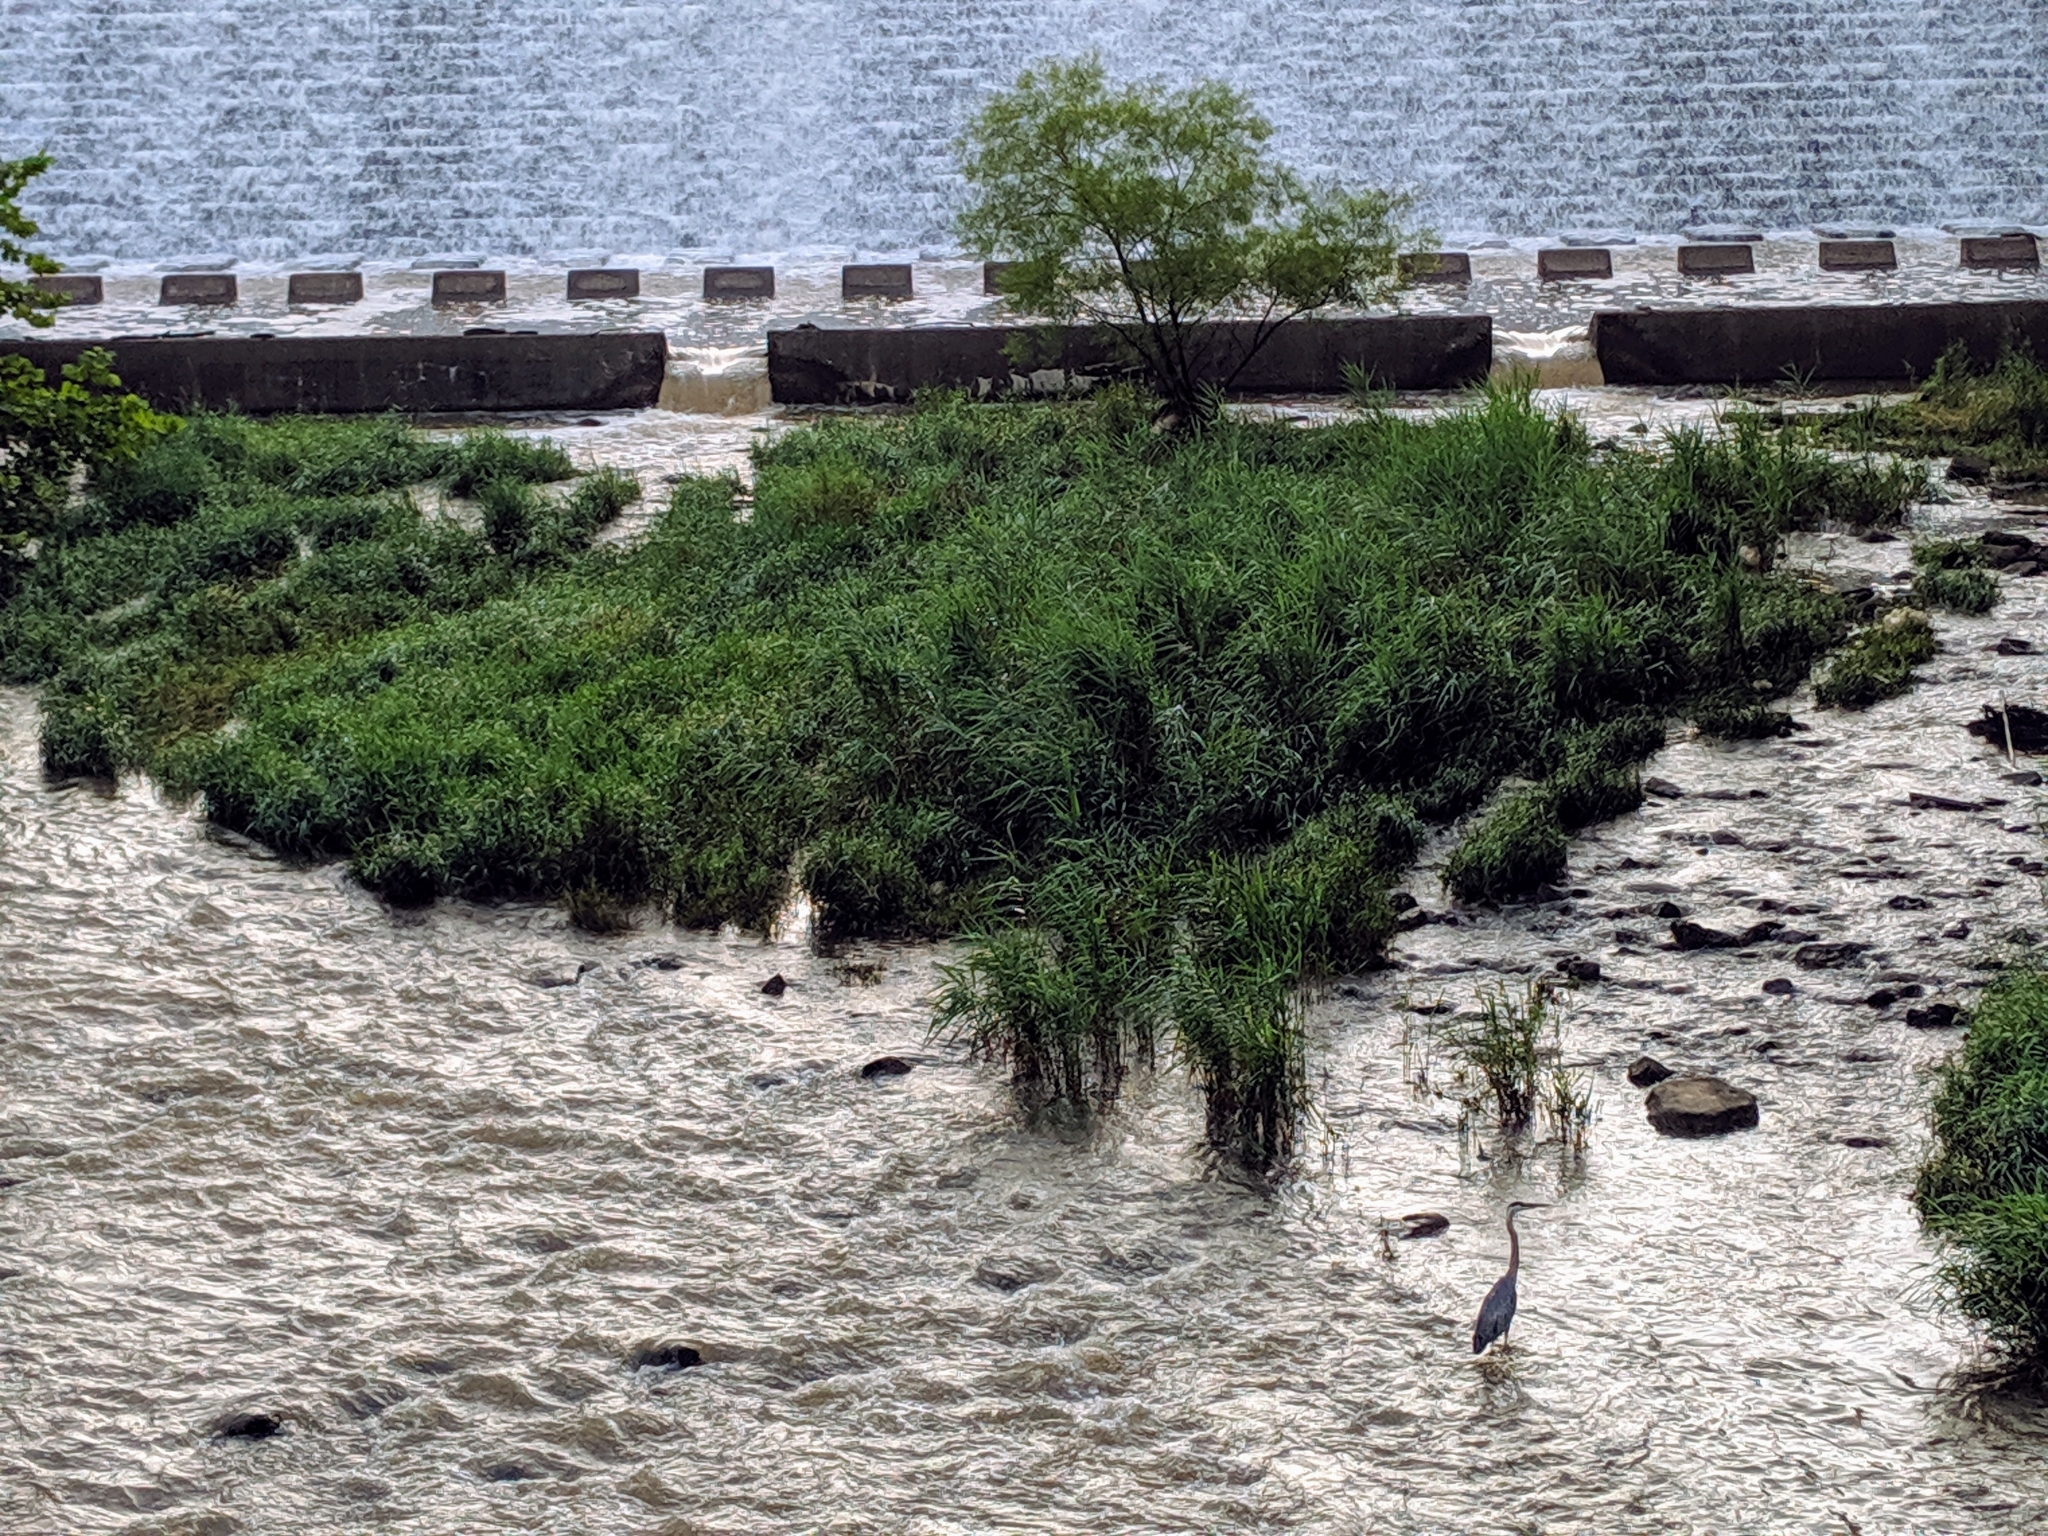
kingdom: Animalia
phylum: Chordata
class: Aves
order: Pelecaniformes
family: Ardeidae
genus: Ardea
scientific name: Ardea herodias
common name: Great blue heron
